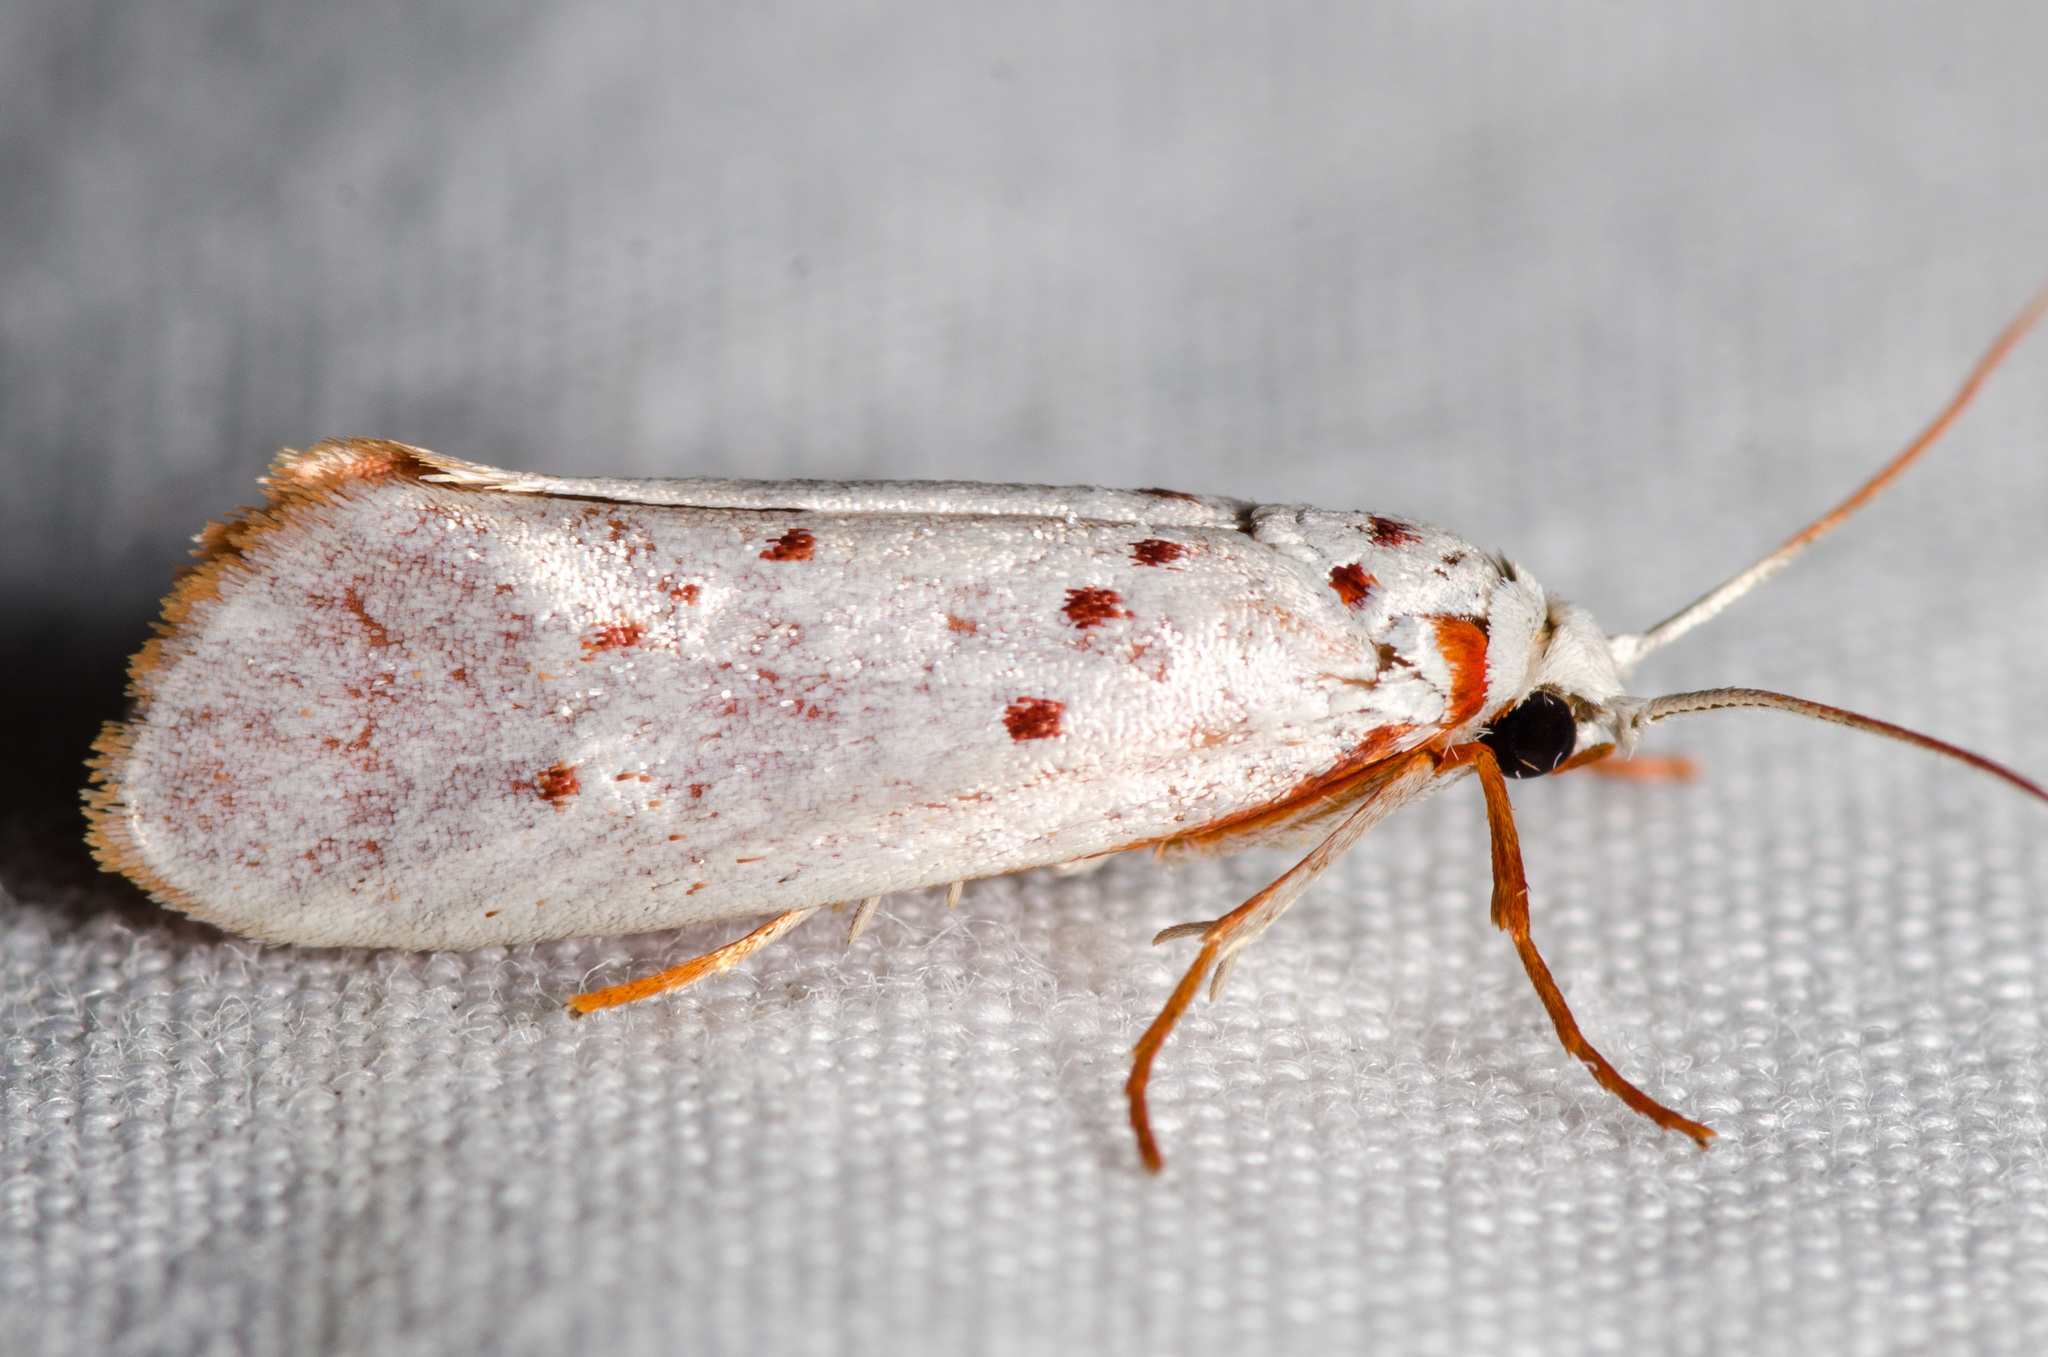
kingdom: Animalia
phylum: Arthropoda
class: Insecta
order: Lepidoptera
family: Lacturidae
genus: Lactura
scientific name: Lactura
